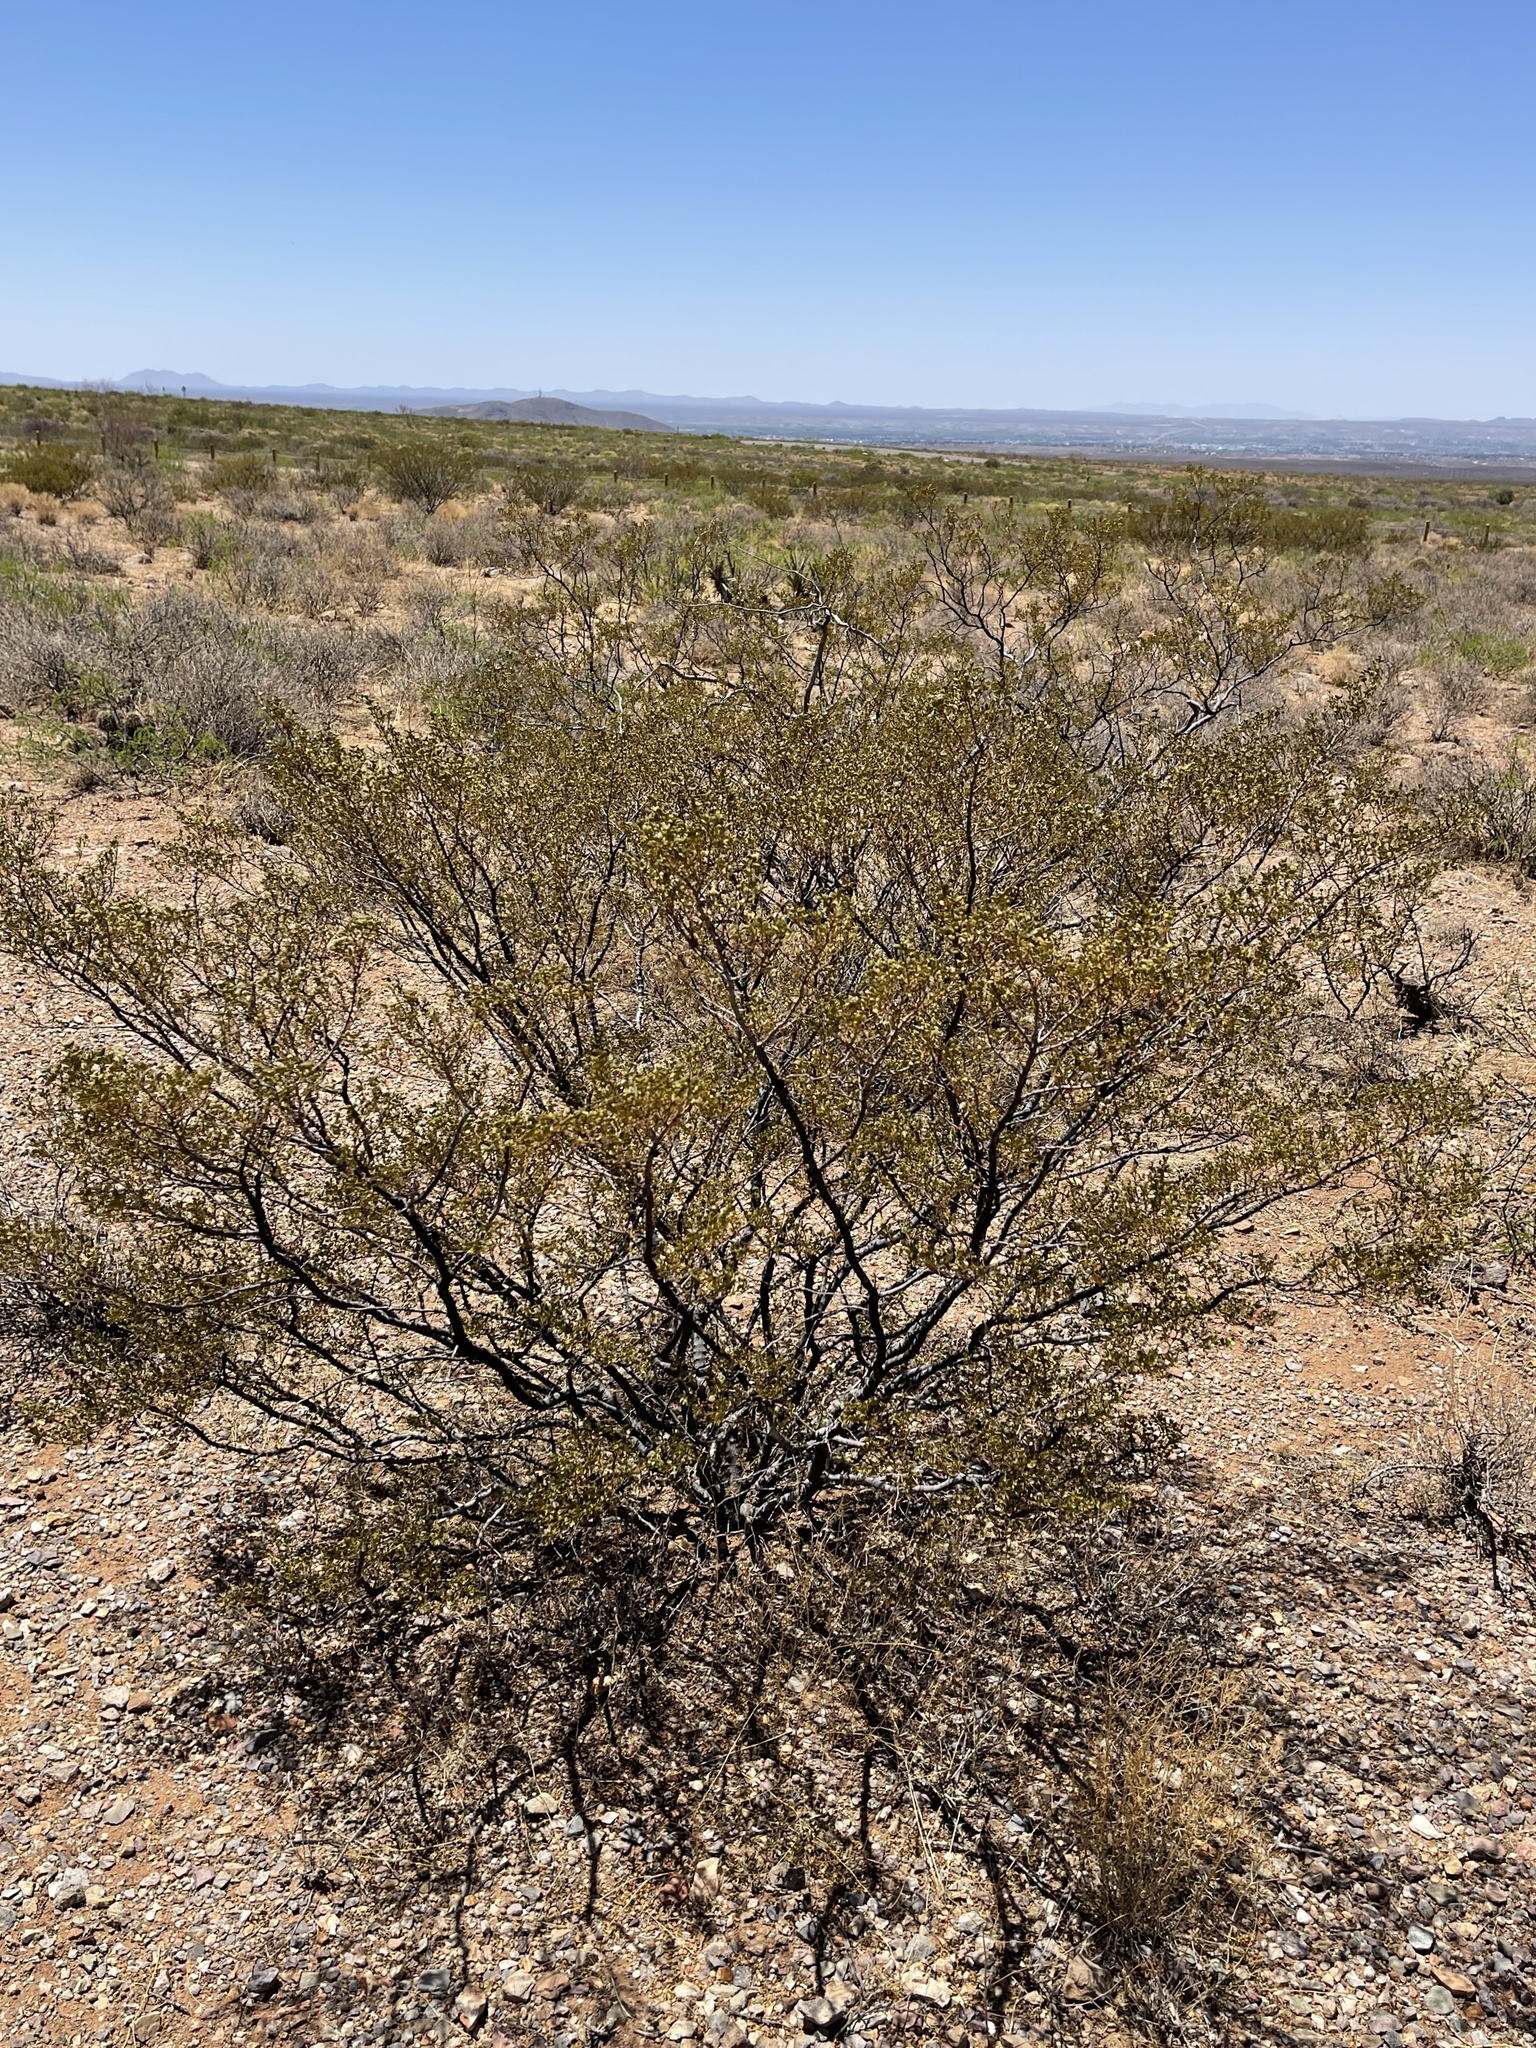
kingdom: Plantae
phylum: Tracheophyta
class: Magnoliopsida
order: Zygophyllales
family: Zygophyllaceae
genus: Larrea
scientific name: Larrea tridentata
